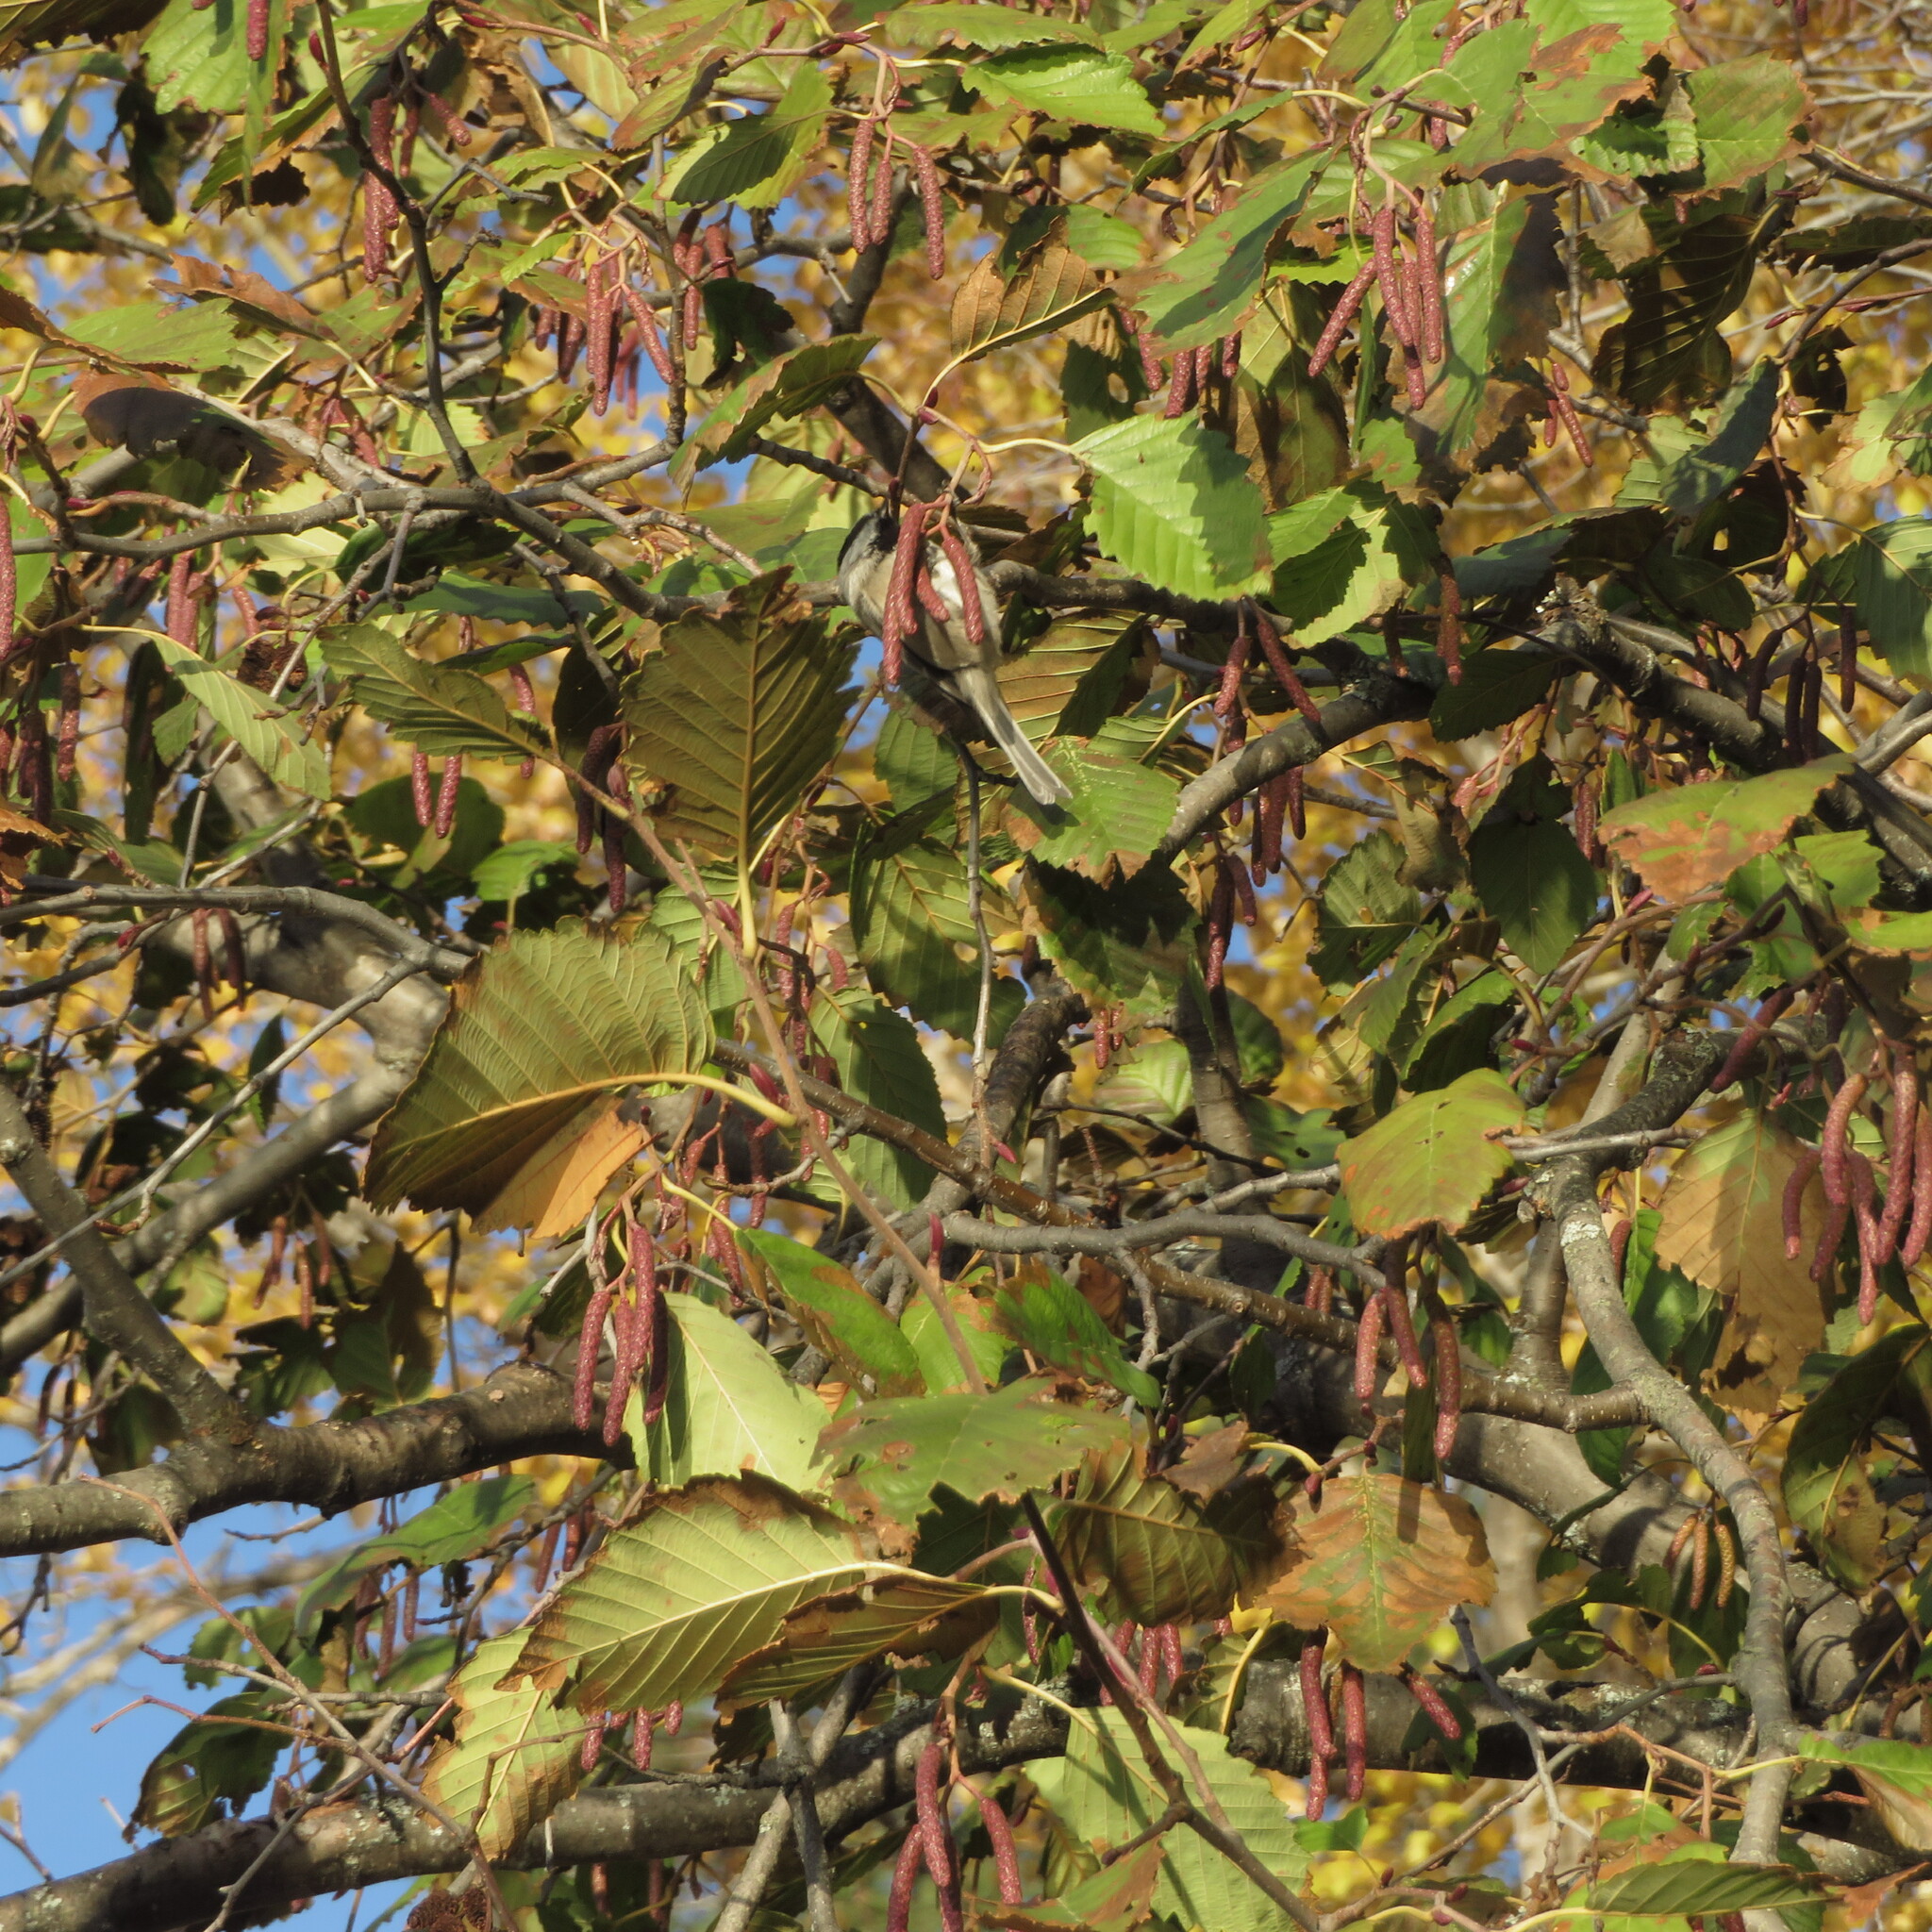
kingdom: Plantae
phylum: Tracheophyta
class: Magnoliopsida
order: Fagales
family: Betulaceae
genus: Alnus
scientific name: Alnus incana
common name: Grey alder
